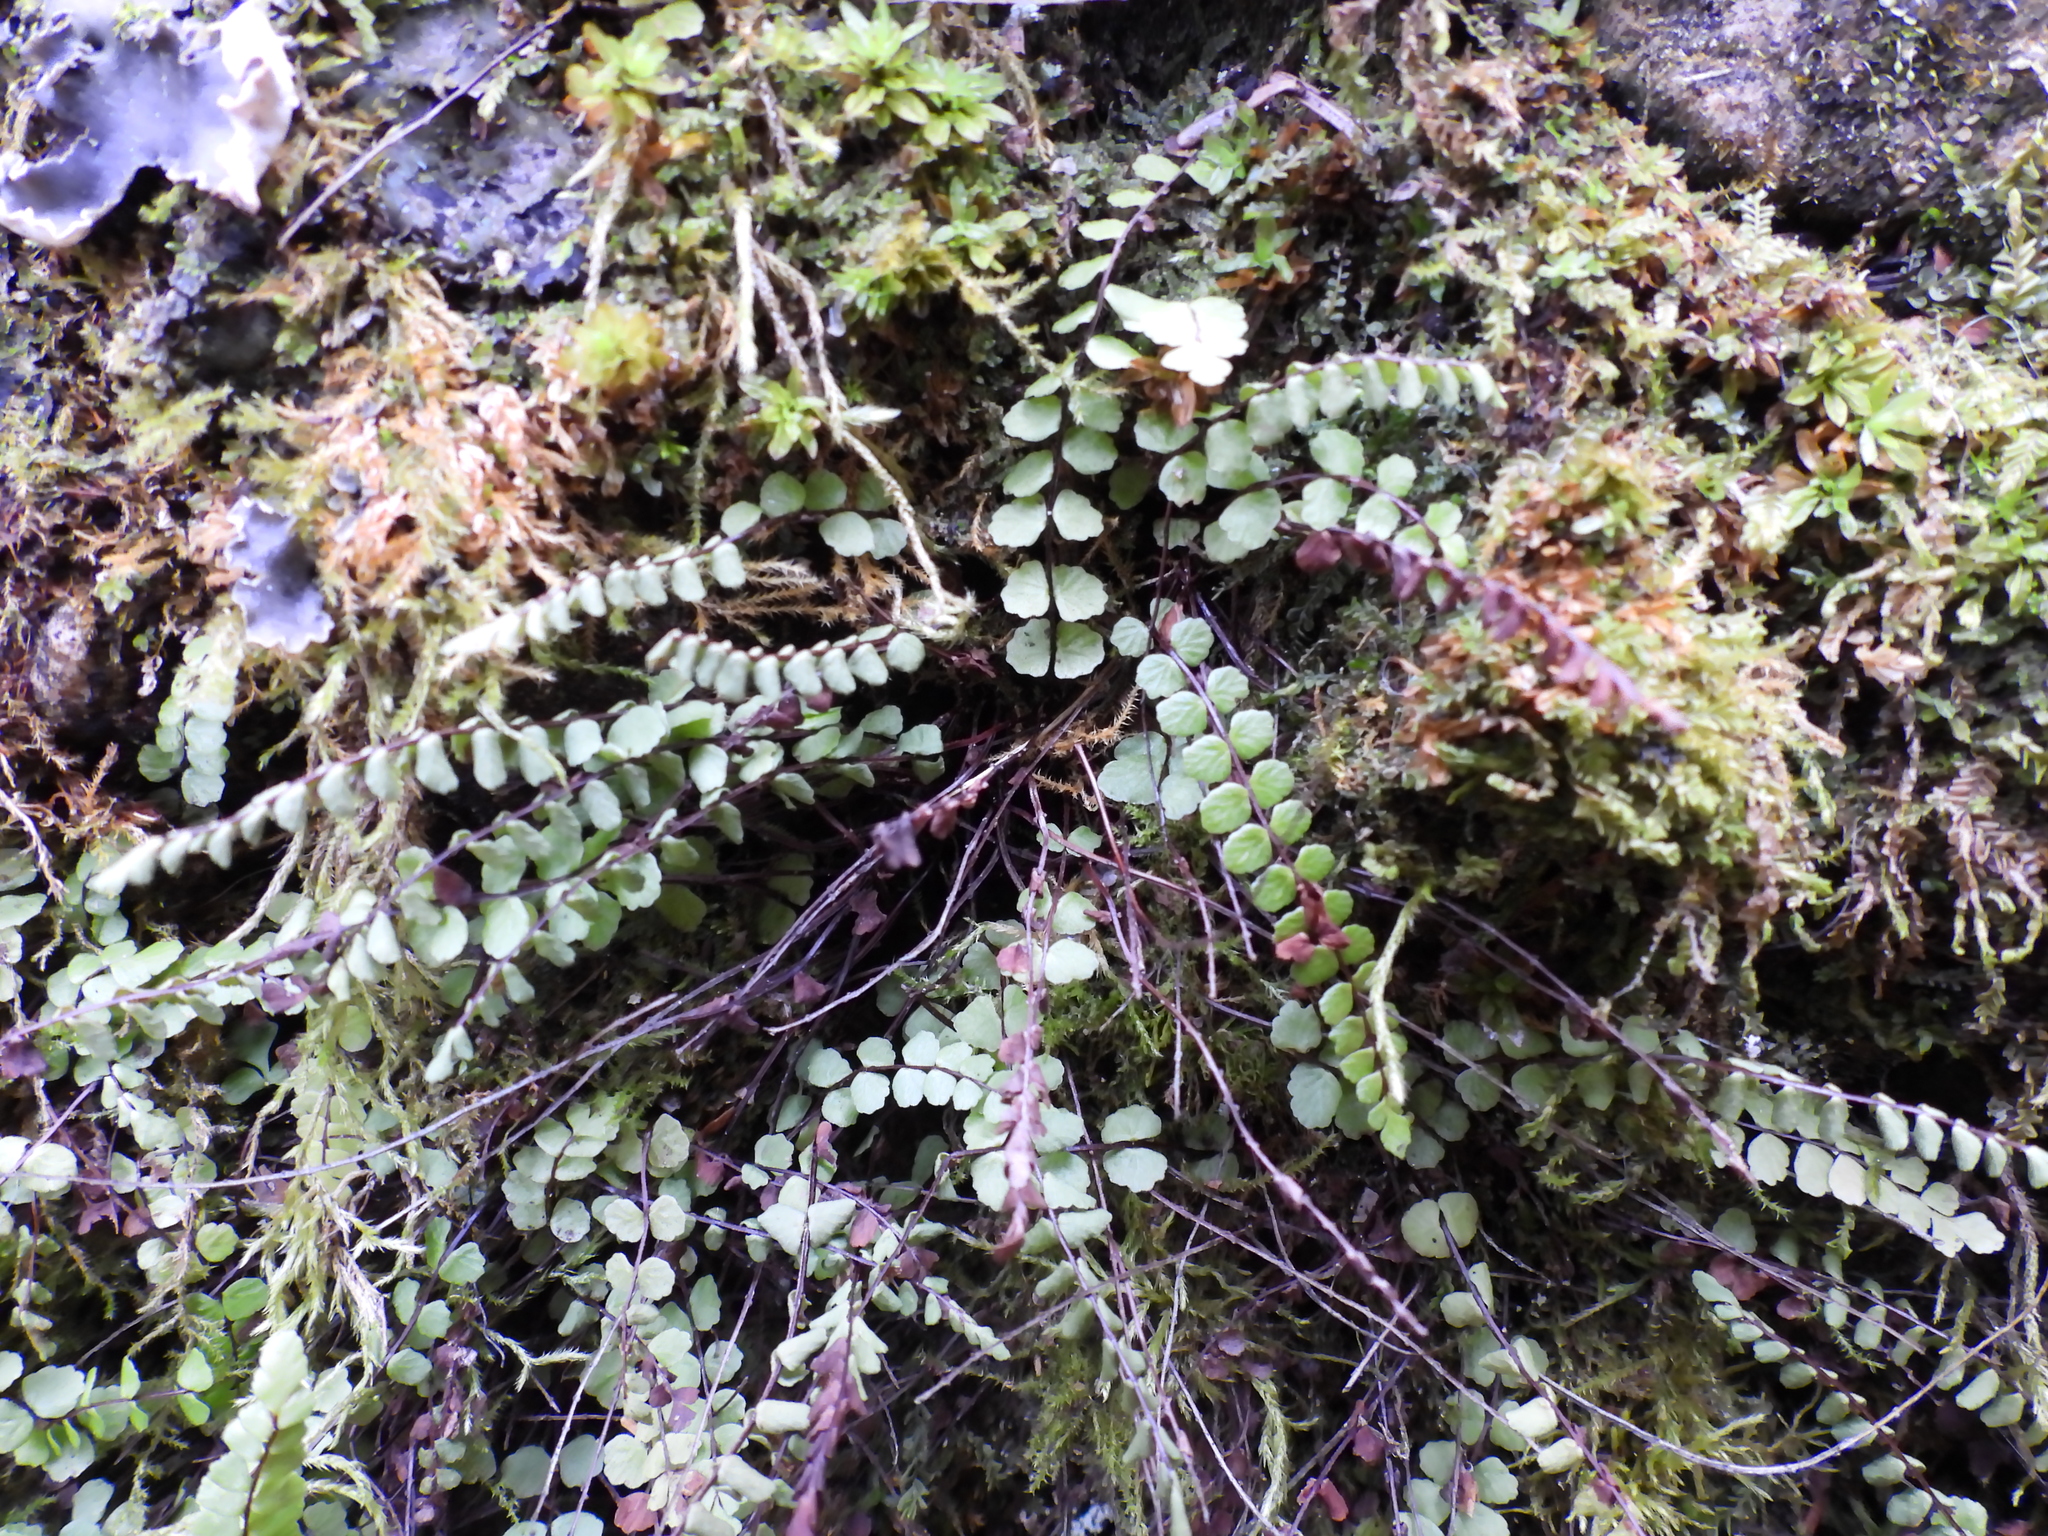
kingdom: Plantae
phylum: Tracheophyta
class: Polypodiopsida
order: Polypodiales
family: Aspleniaceae
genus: Asplenium
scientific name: Asplenium trichomanes
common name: Maidenhair spleenwort
